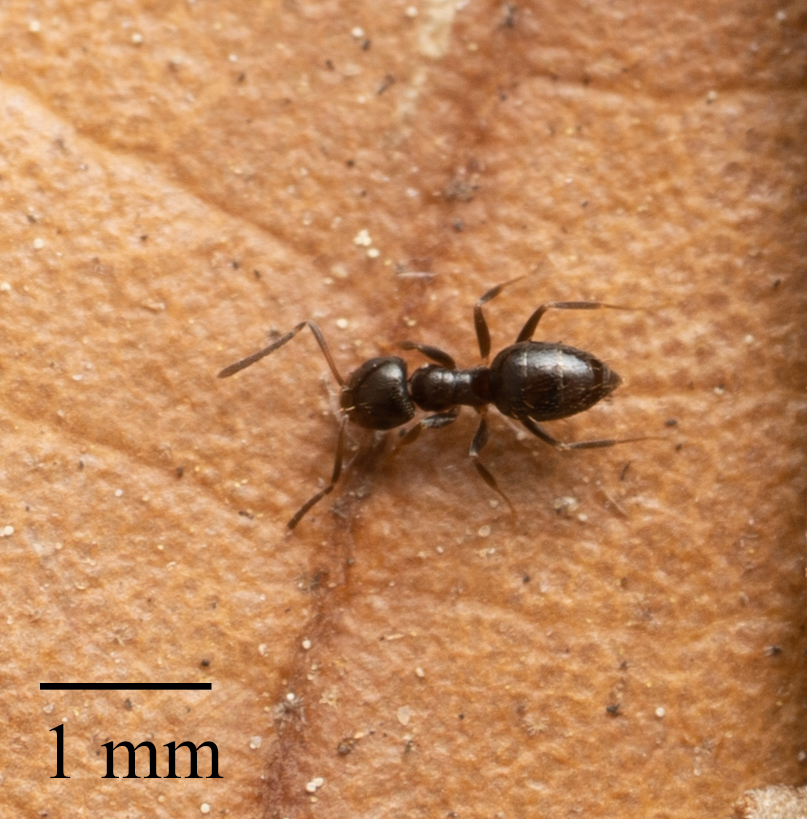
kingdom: Animalia
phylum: Arthropoda
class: Insecta
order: Hymenoptera
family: Formicidae
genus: Brachymyrmex
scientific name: Brachymyrmex patagonicus
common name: Dark rover ant
